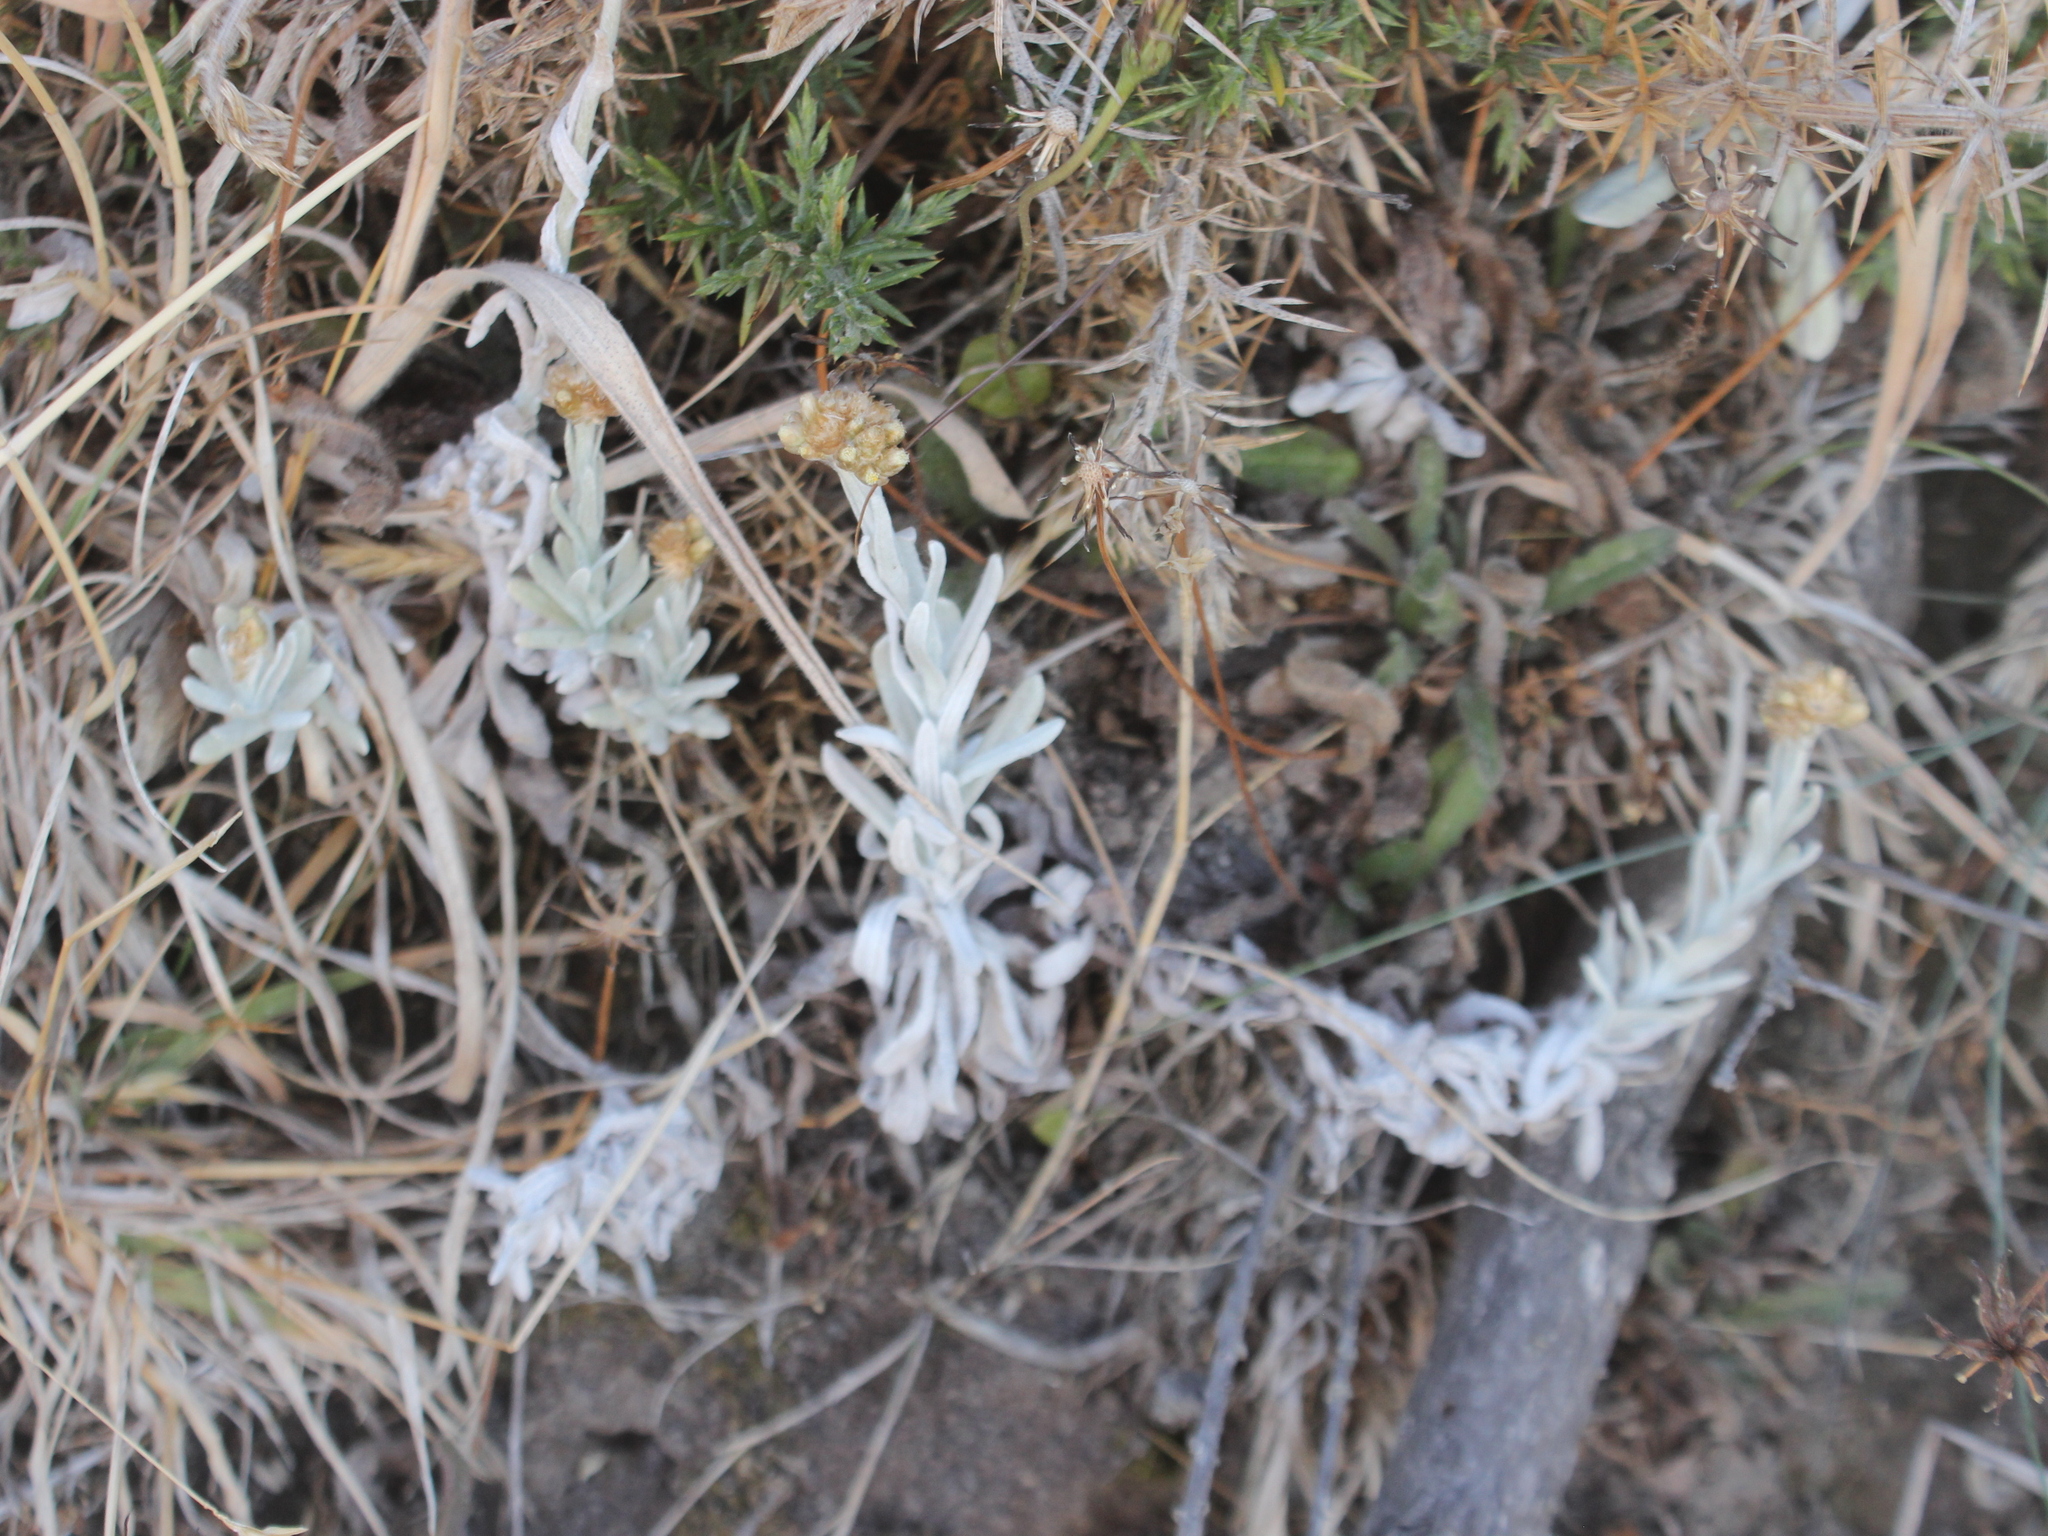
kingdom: Plantae
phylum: Tracheophyta
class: Magnoliopsida
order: Asterales
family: Asteraceae
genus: Pseudognaphalium
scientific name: Pseudognaphalium
